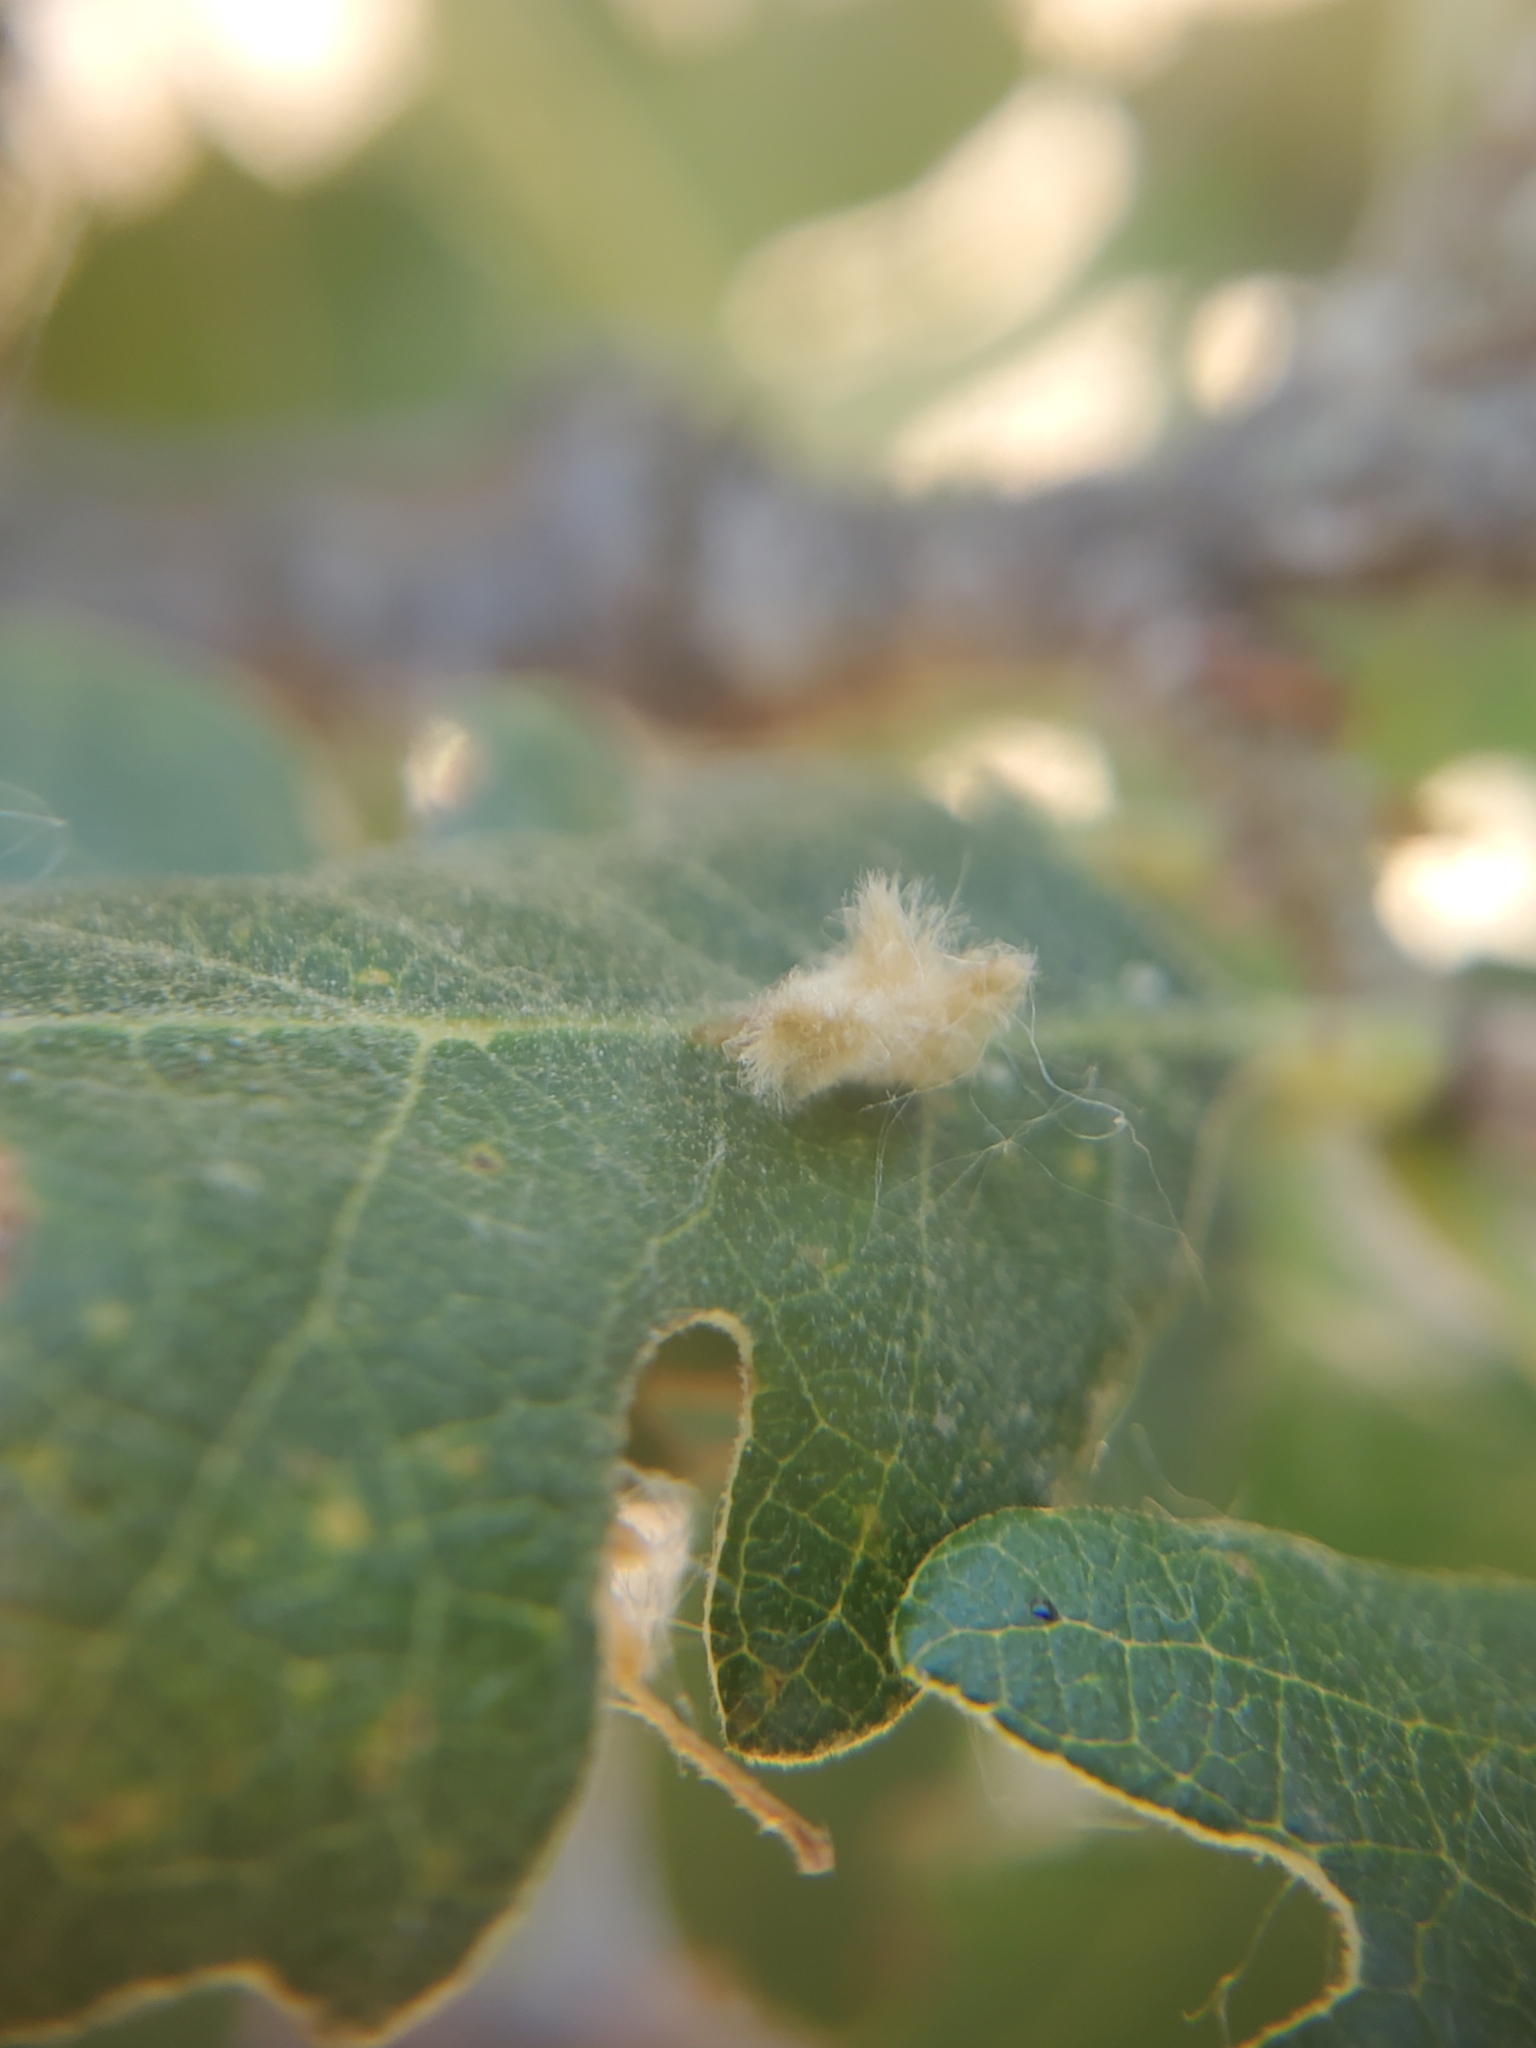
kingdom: Animalia
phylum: Arthropoda
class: Insecta
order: Hymenoptera
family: Cynipidae
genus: Andricus
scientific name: Andricus Druon fullawayi
